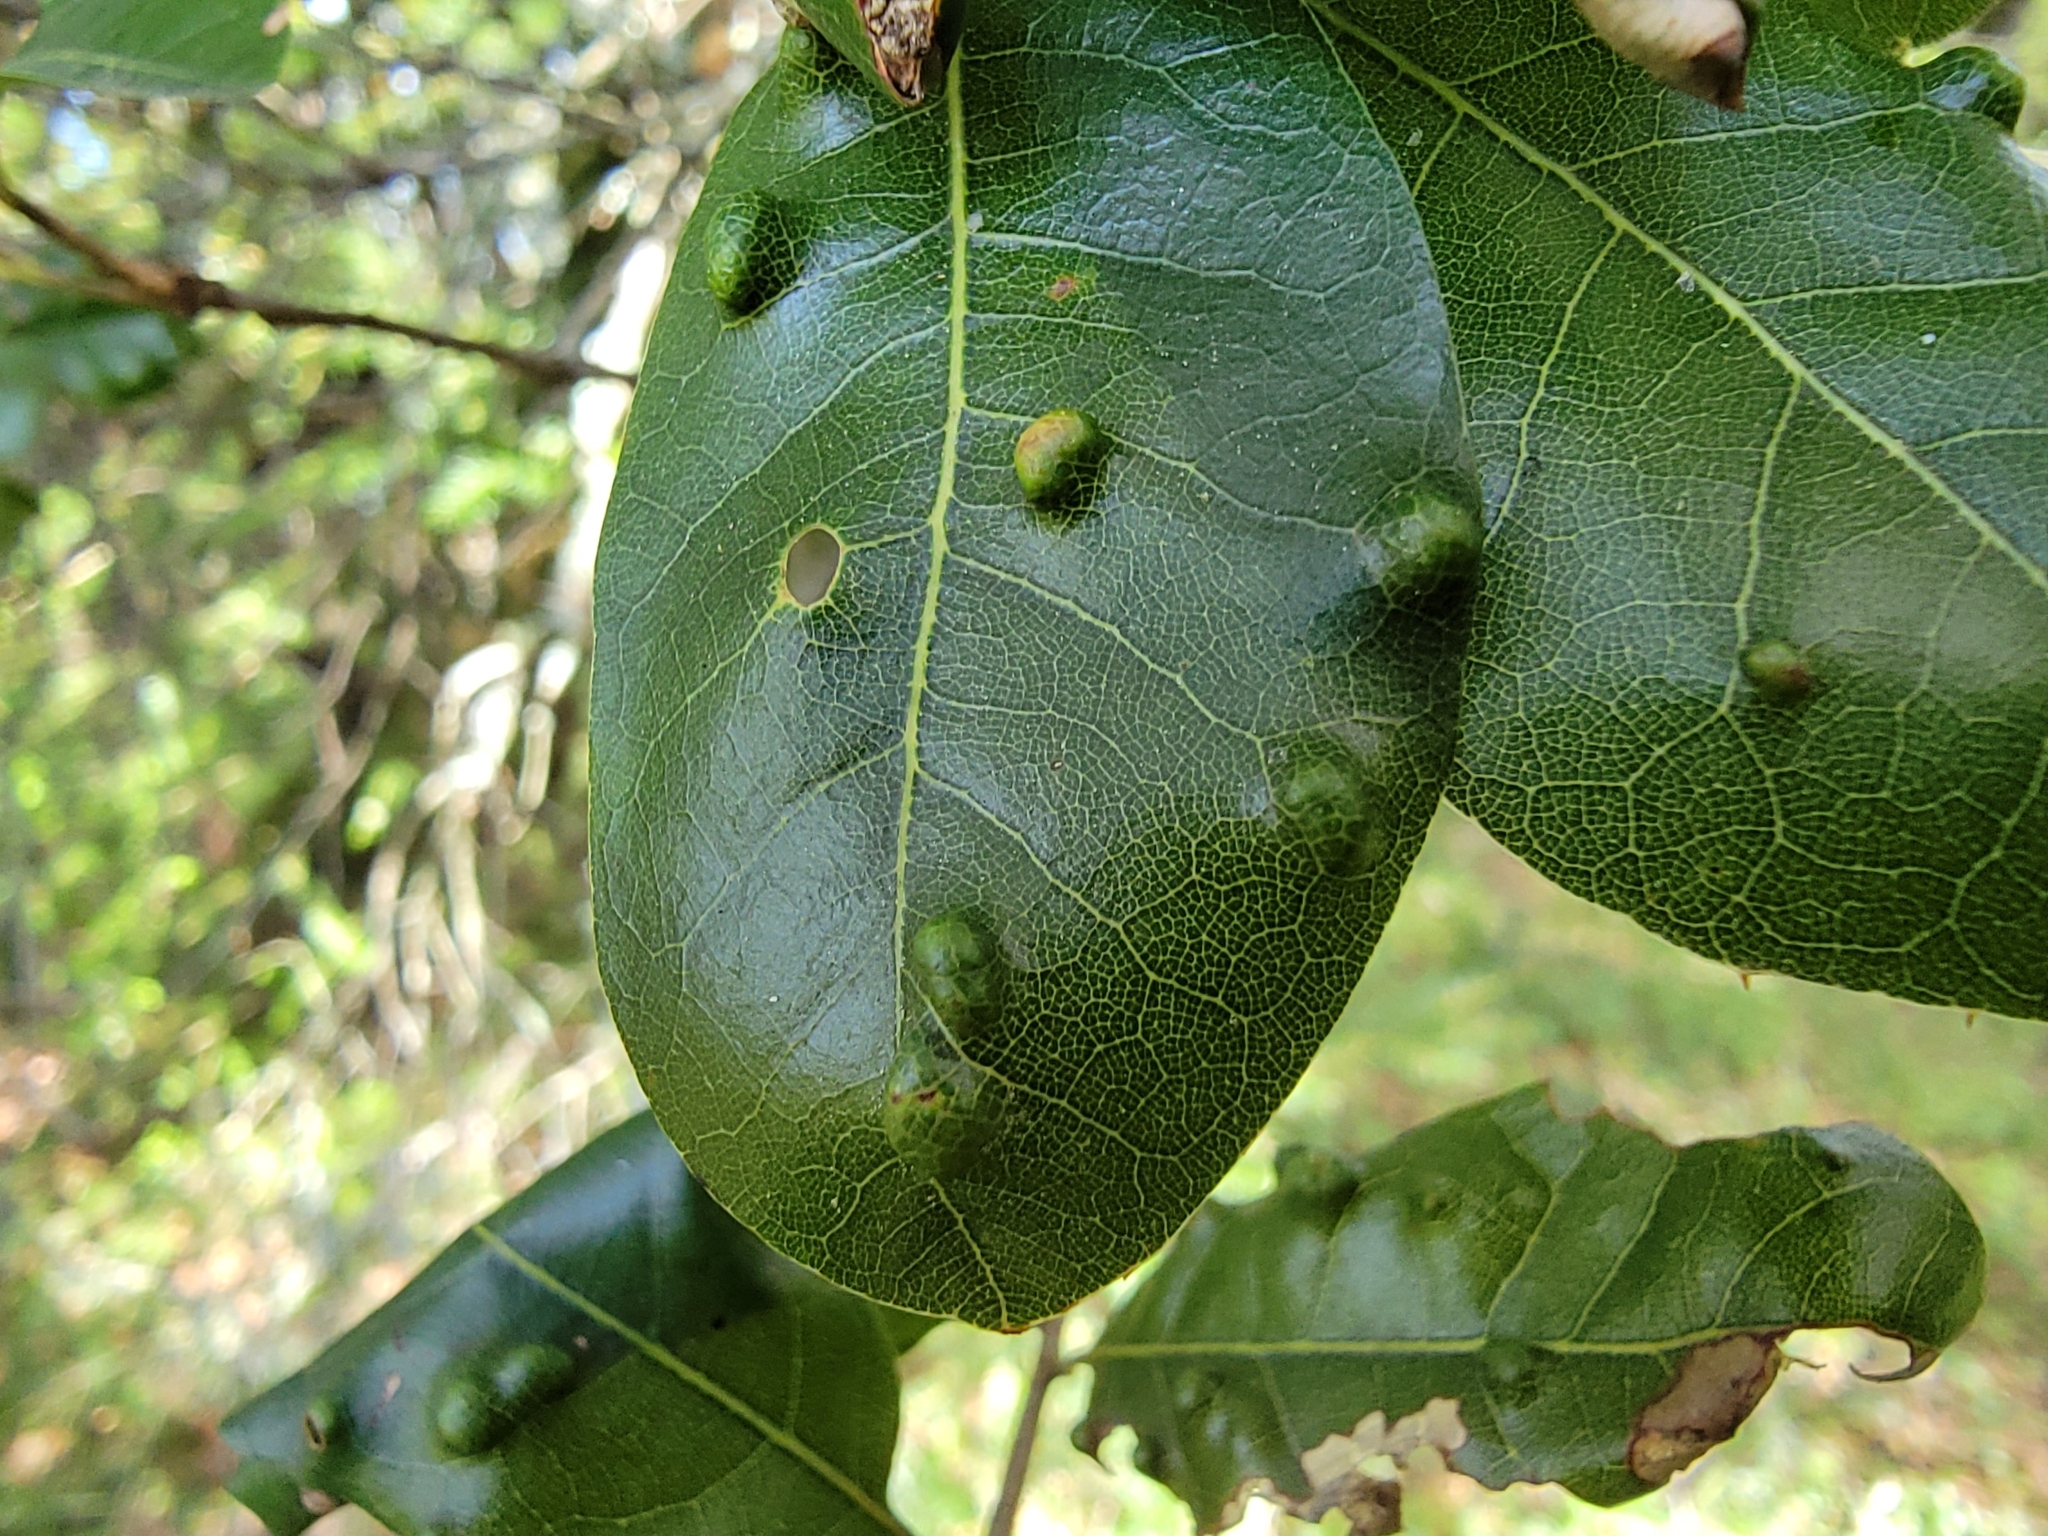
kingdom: Animalia
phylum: Arthropoda
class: Arachnida
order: Trombidiformes
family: Eriophyidae
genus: Aceria
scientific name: Aceria
